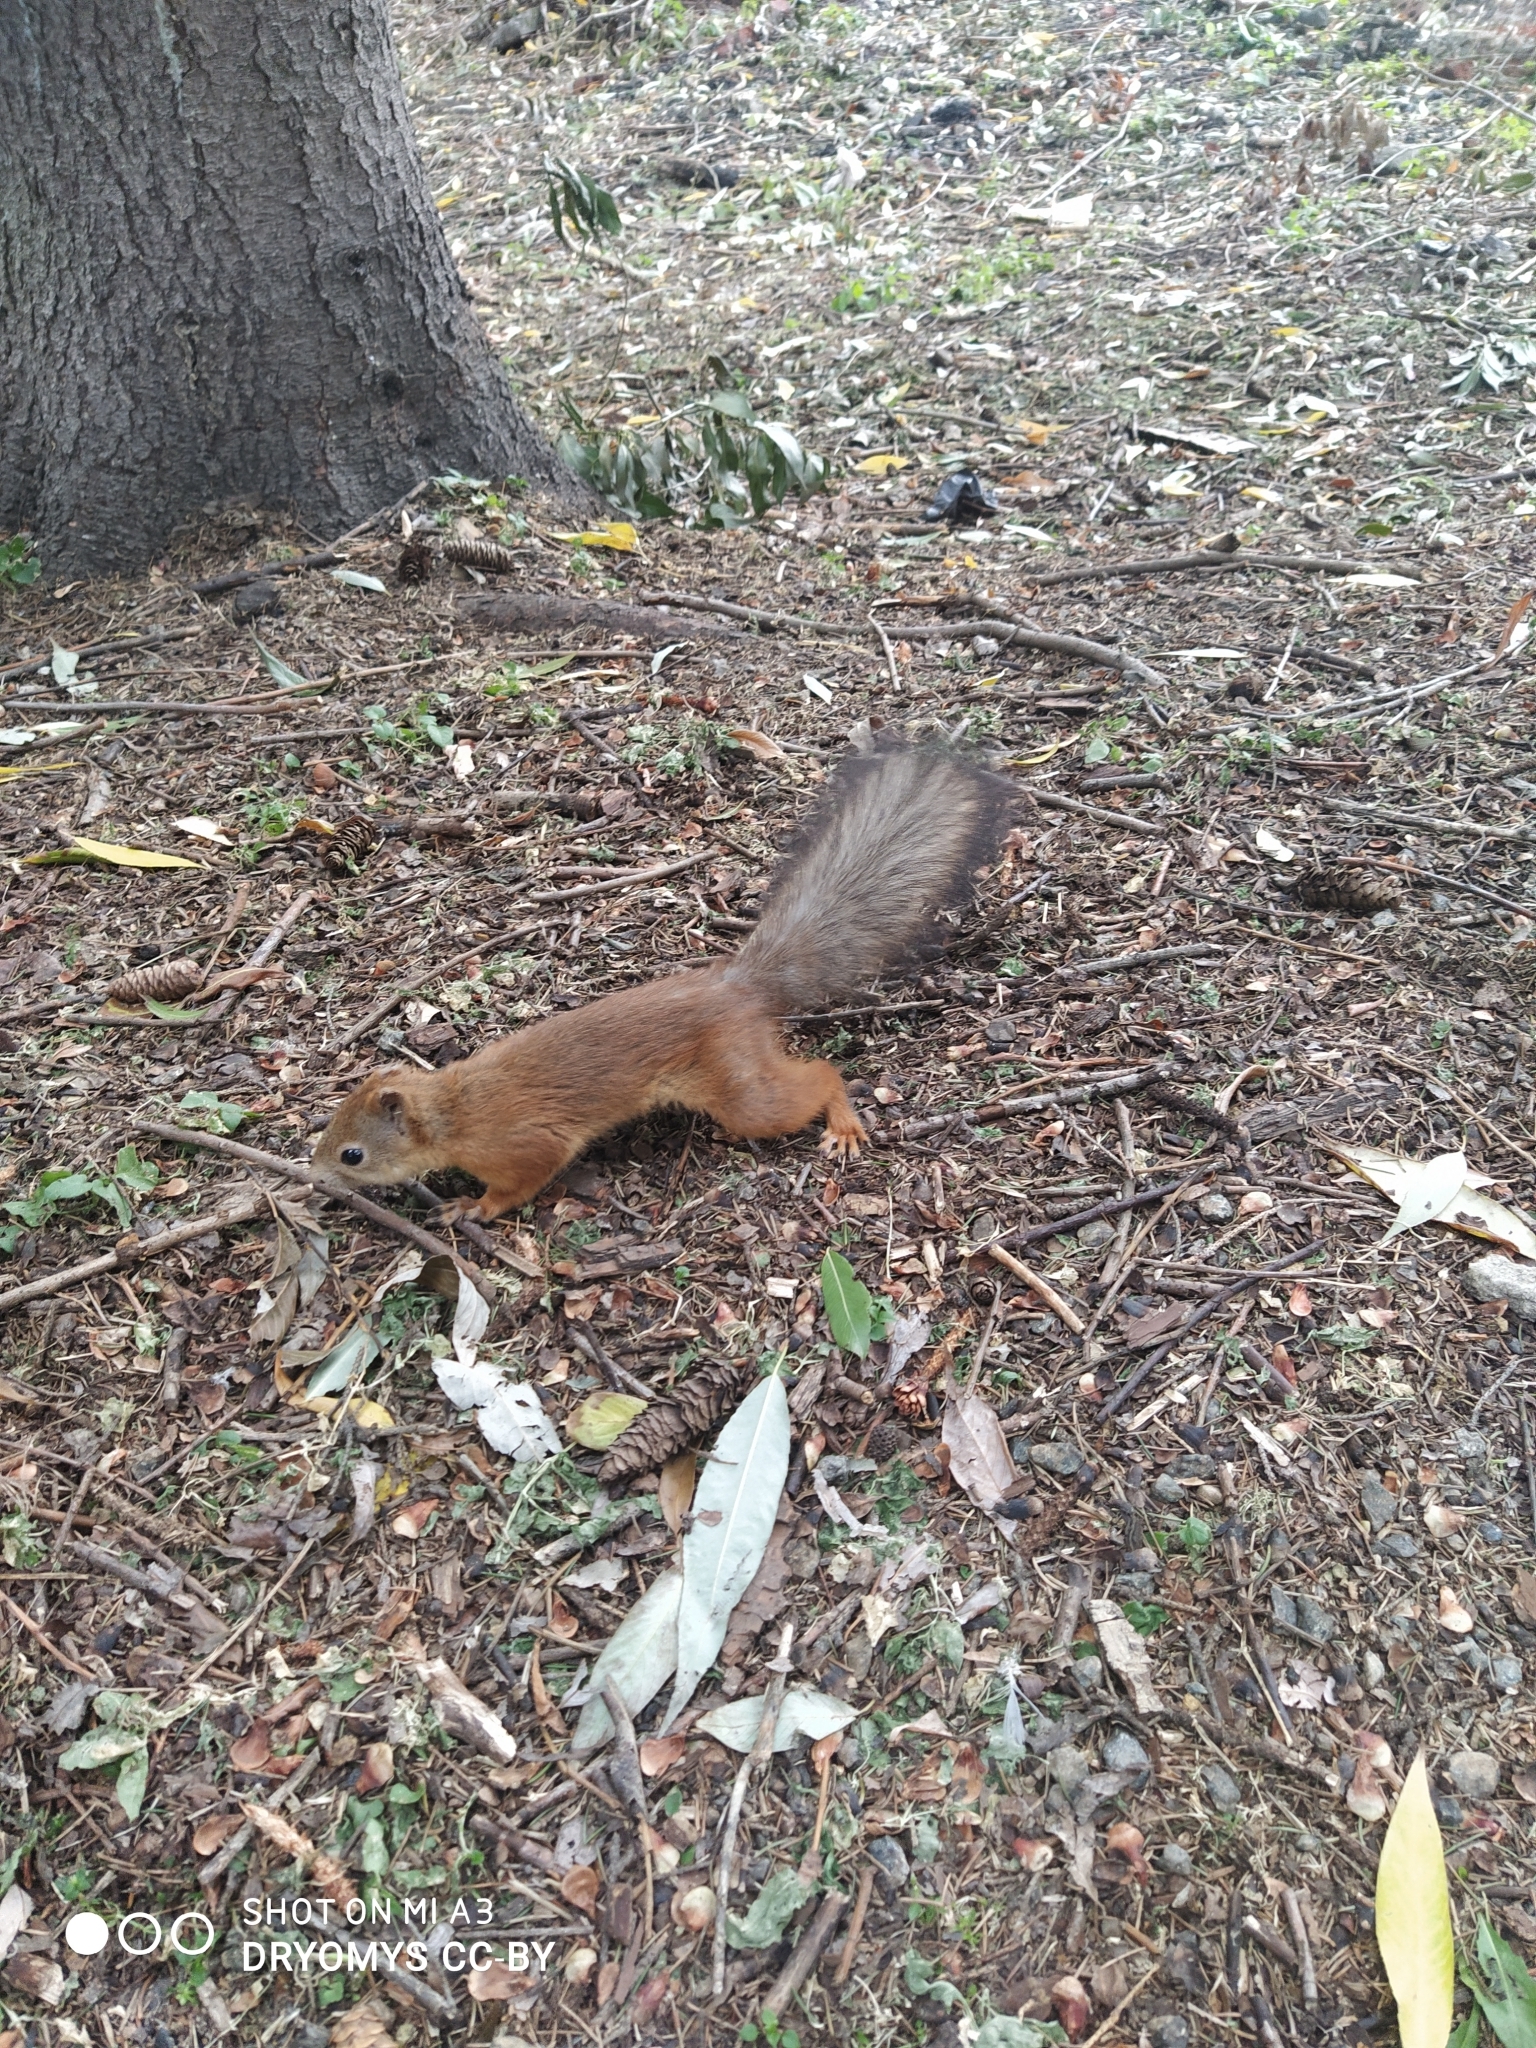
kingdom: Animalia
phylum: Chordata
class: Mammalia
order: Rodentia
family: Sciuridae
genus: Sciurus
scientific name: Sciurus vulgaris
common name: Eurasian red squirrel
